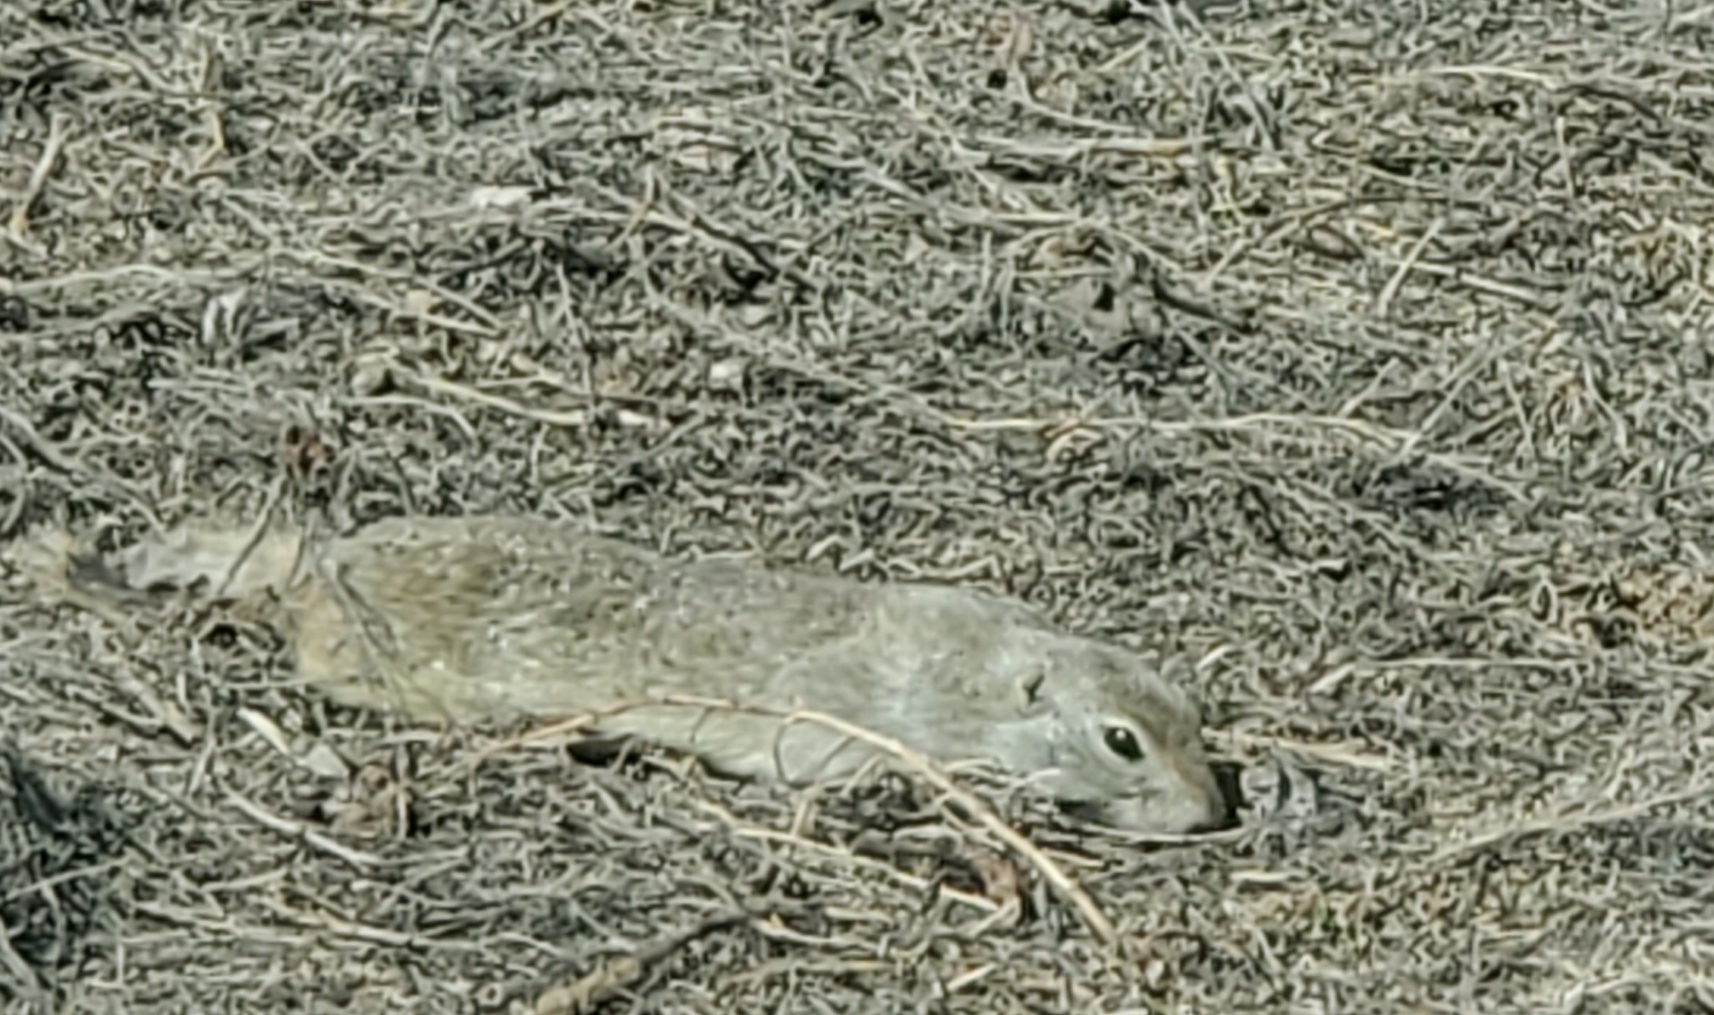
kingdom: Animalia
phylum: Chordata
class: Mammalia
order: Rodentia
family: Sciuridae
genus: Urocitellus
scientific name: Urocitellus richardsonii
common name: Richardson's ground squirrel
